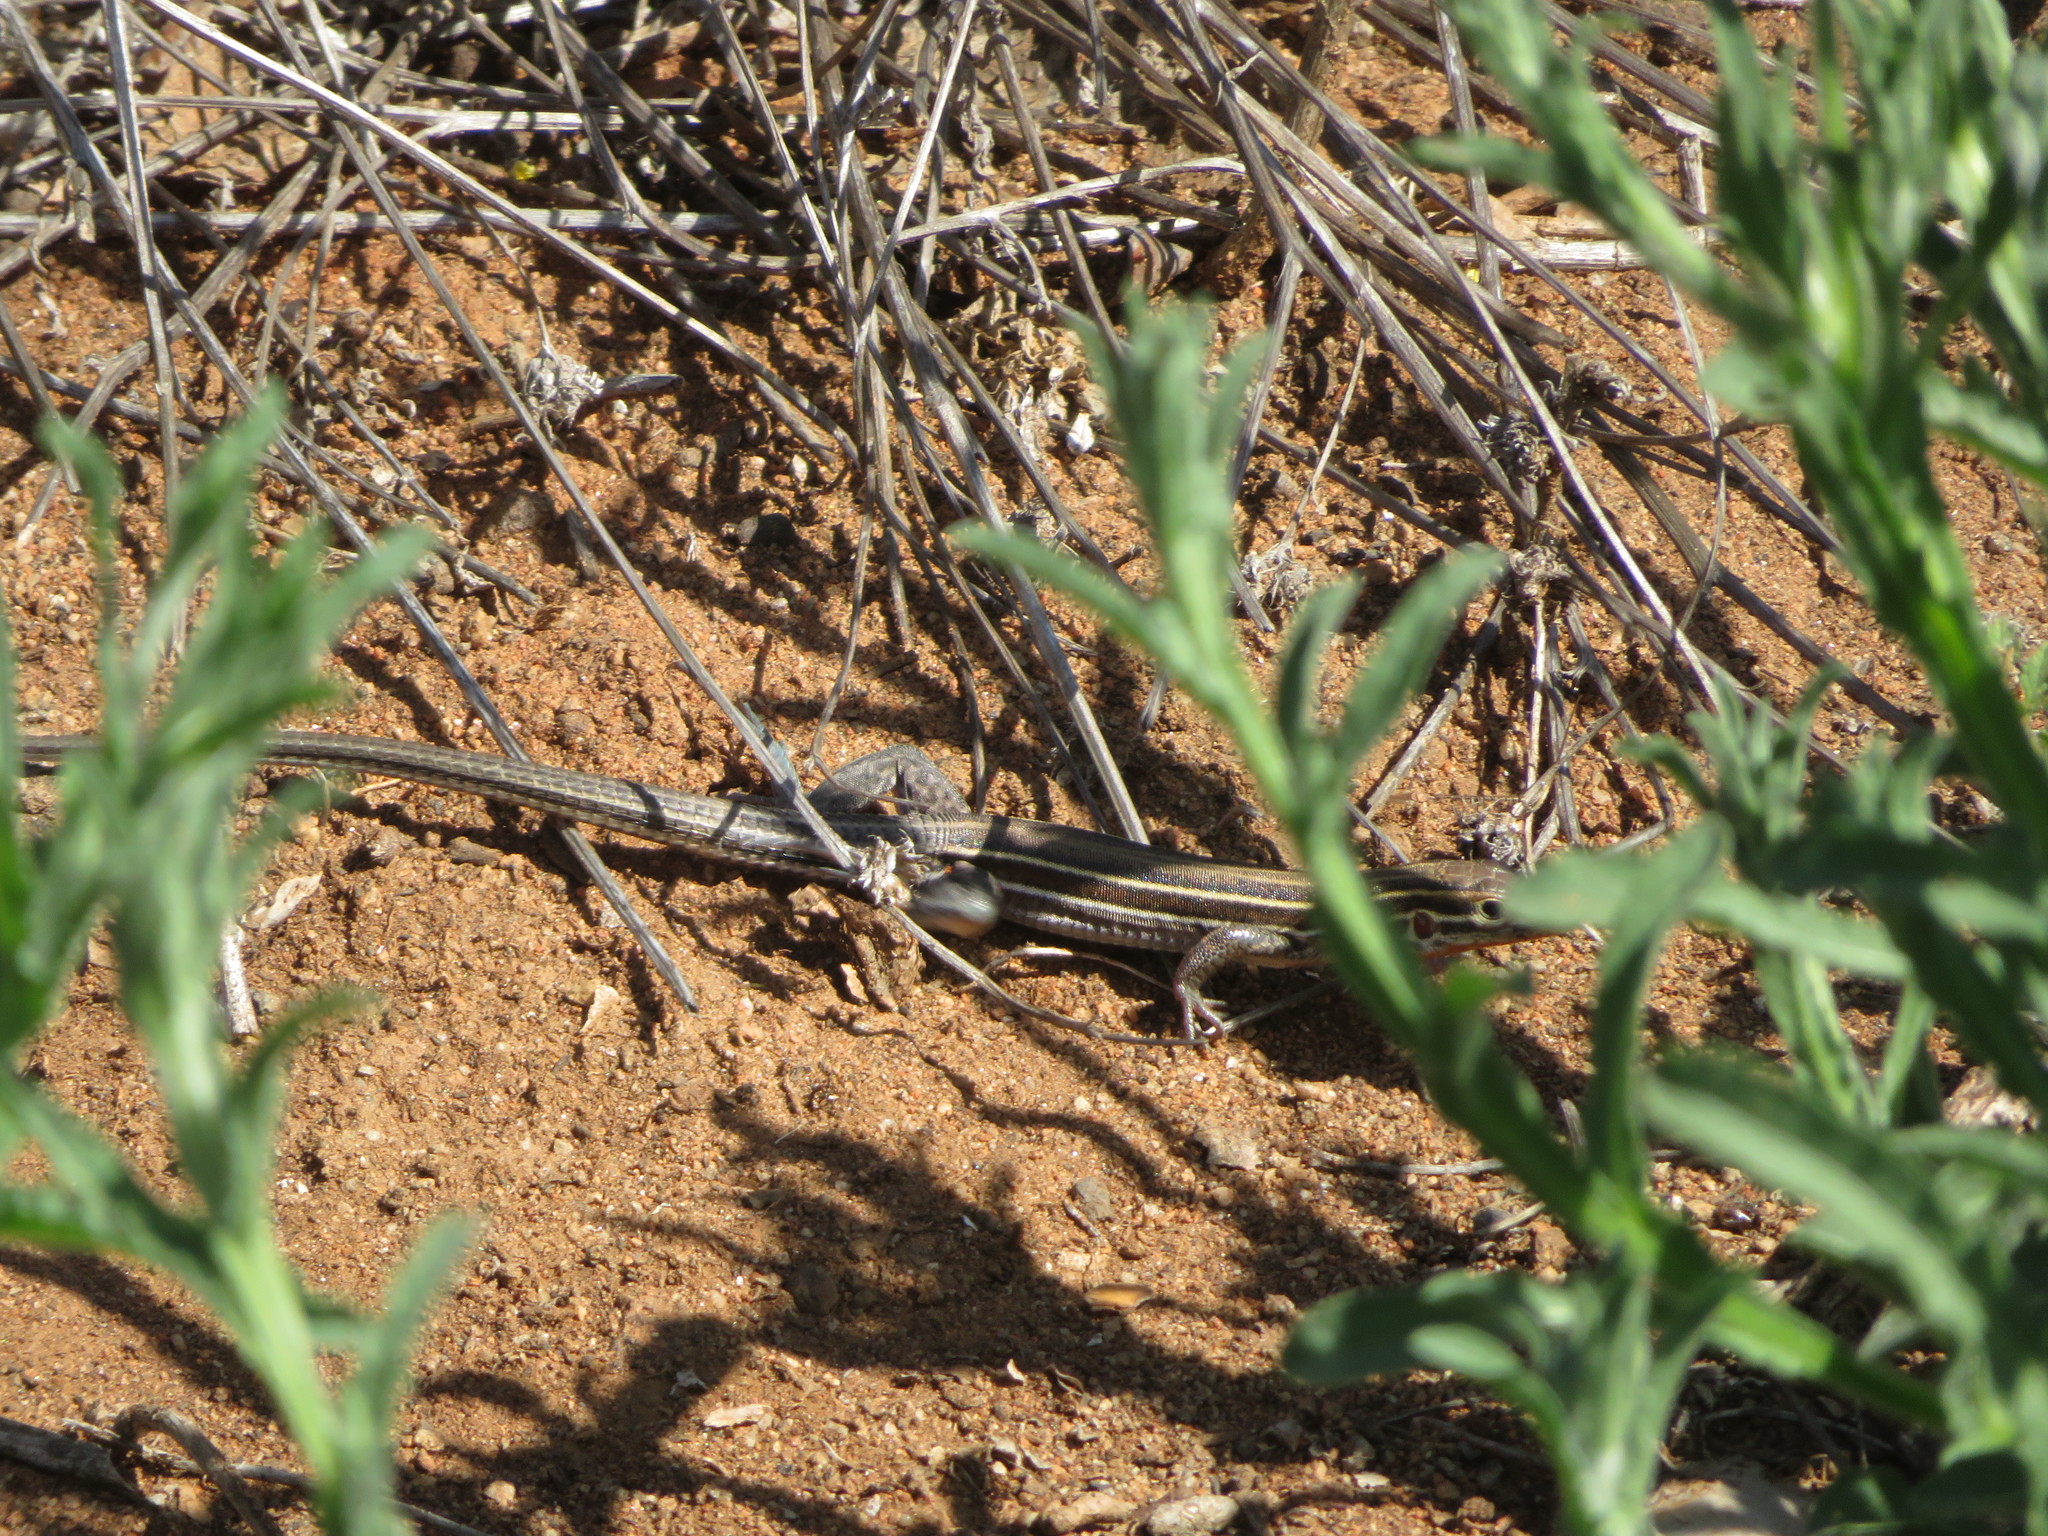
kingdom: Animalia
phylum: Chordata
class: Squamata
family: Teiidae
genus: Aspidoscelis
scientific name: Aspidoscelis hyperythrus
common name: Orange-throated race-runner
